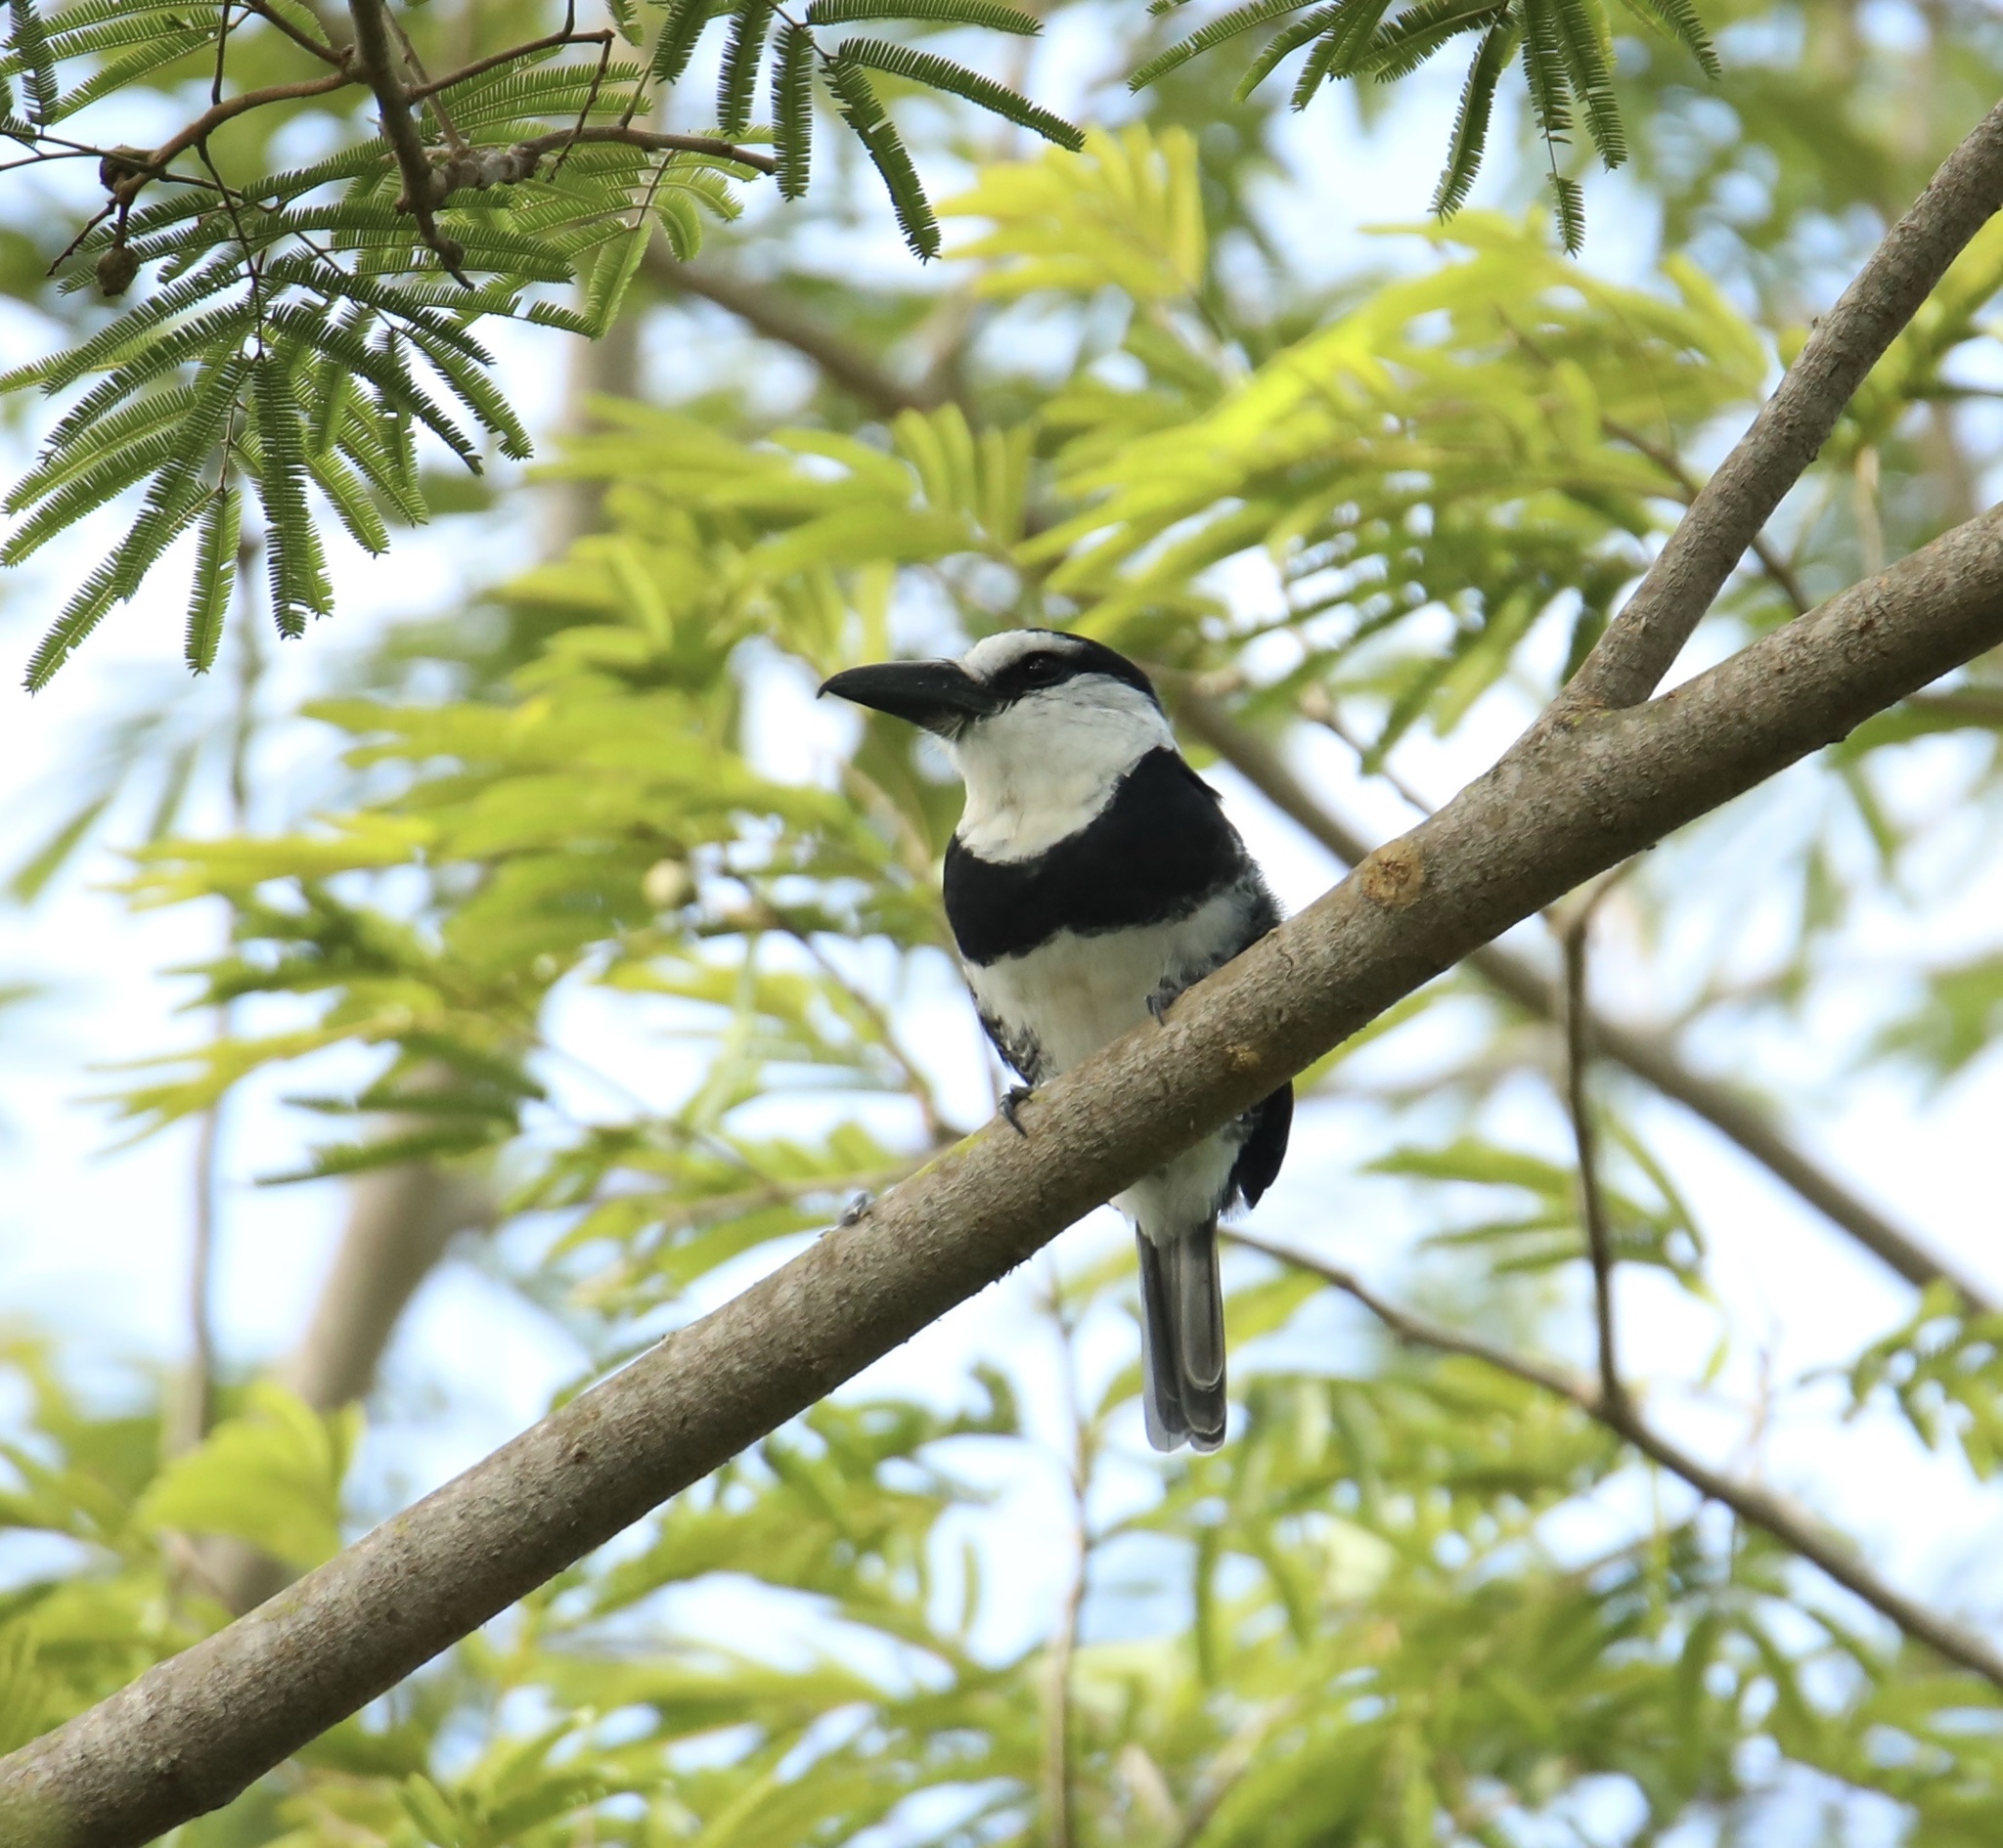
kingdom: Animalia
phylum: Chordata
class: Aves
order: Piciformes
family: Bucconidae
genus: Notharchus
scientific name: Notharchus hyperrhynchus
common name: White-necked puffbird
